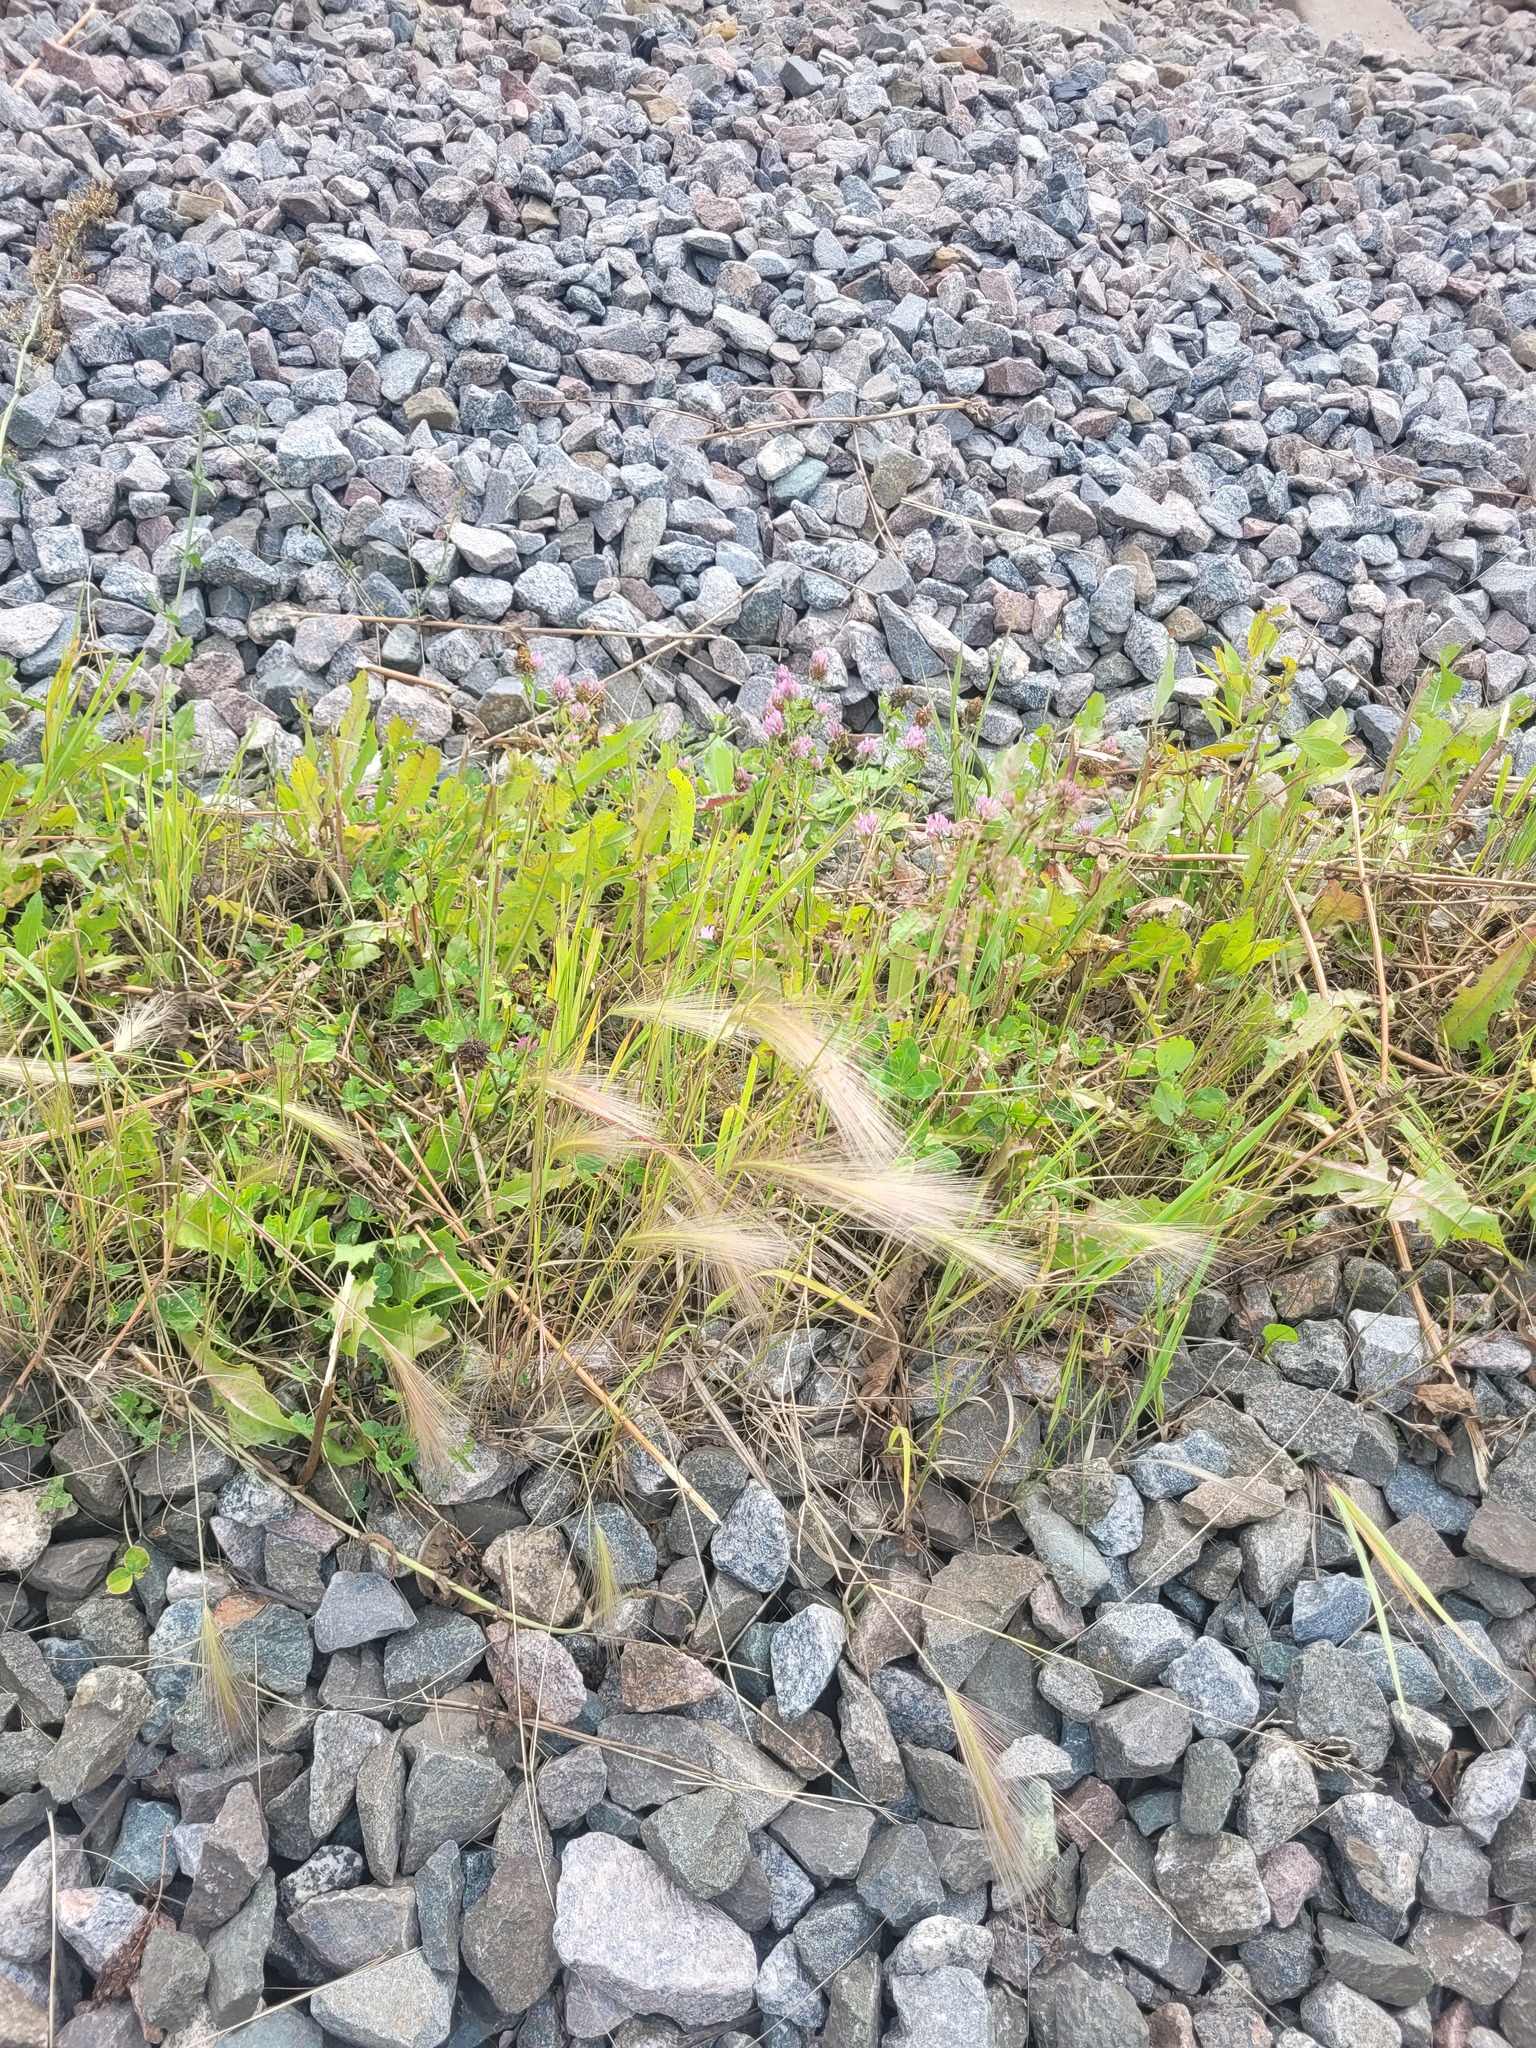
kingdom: Plantae
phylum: Tracheophyta
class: Liliopsida
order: Poales
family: Poaceae
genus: Hordeum
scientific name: Hordeum jubatum
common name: Foxtail barley
